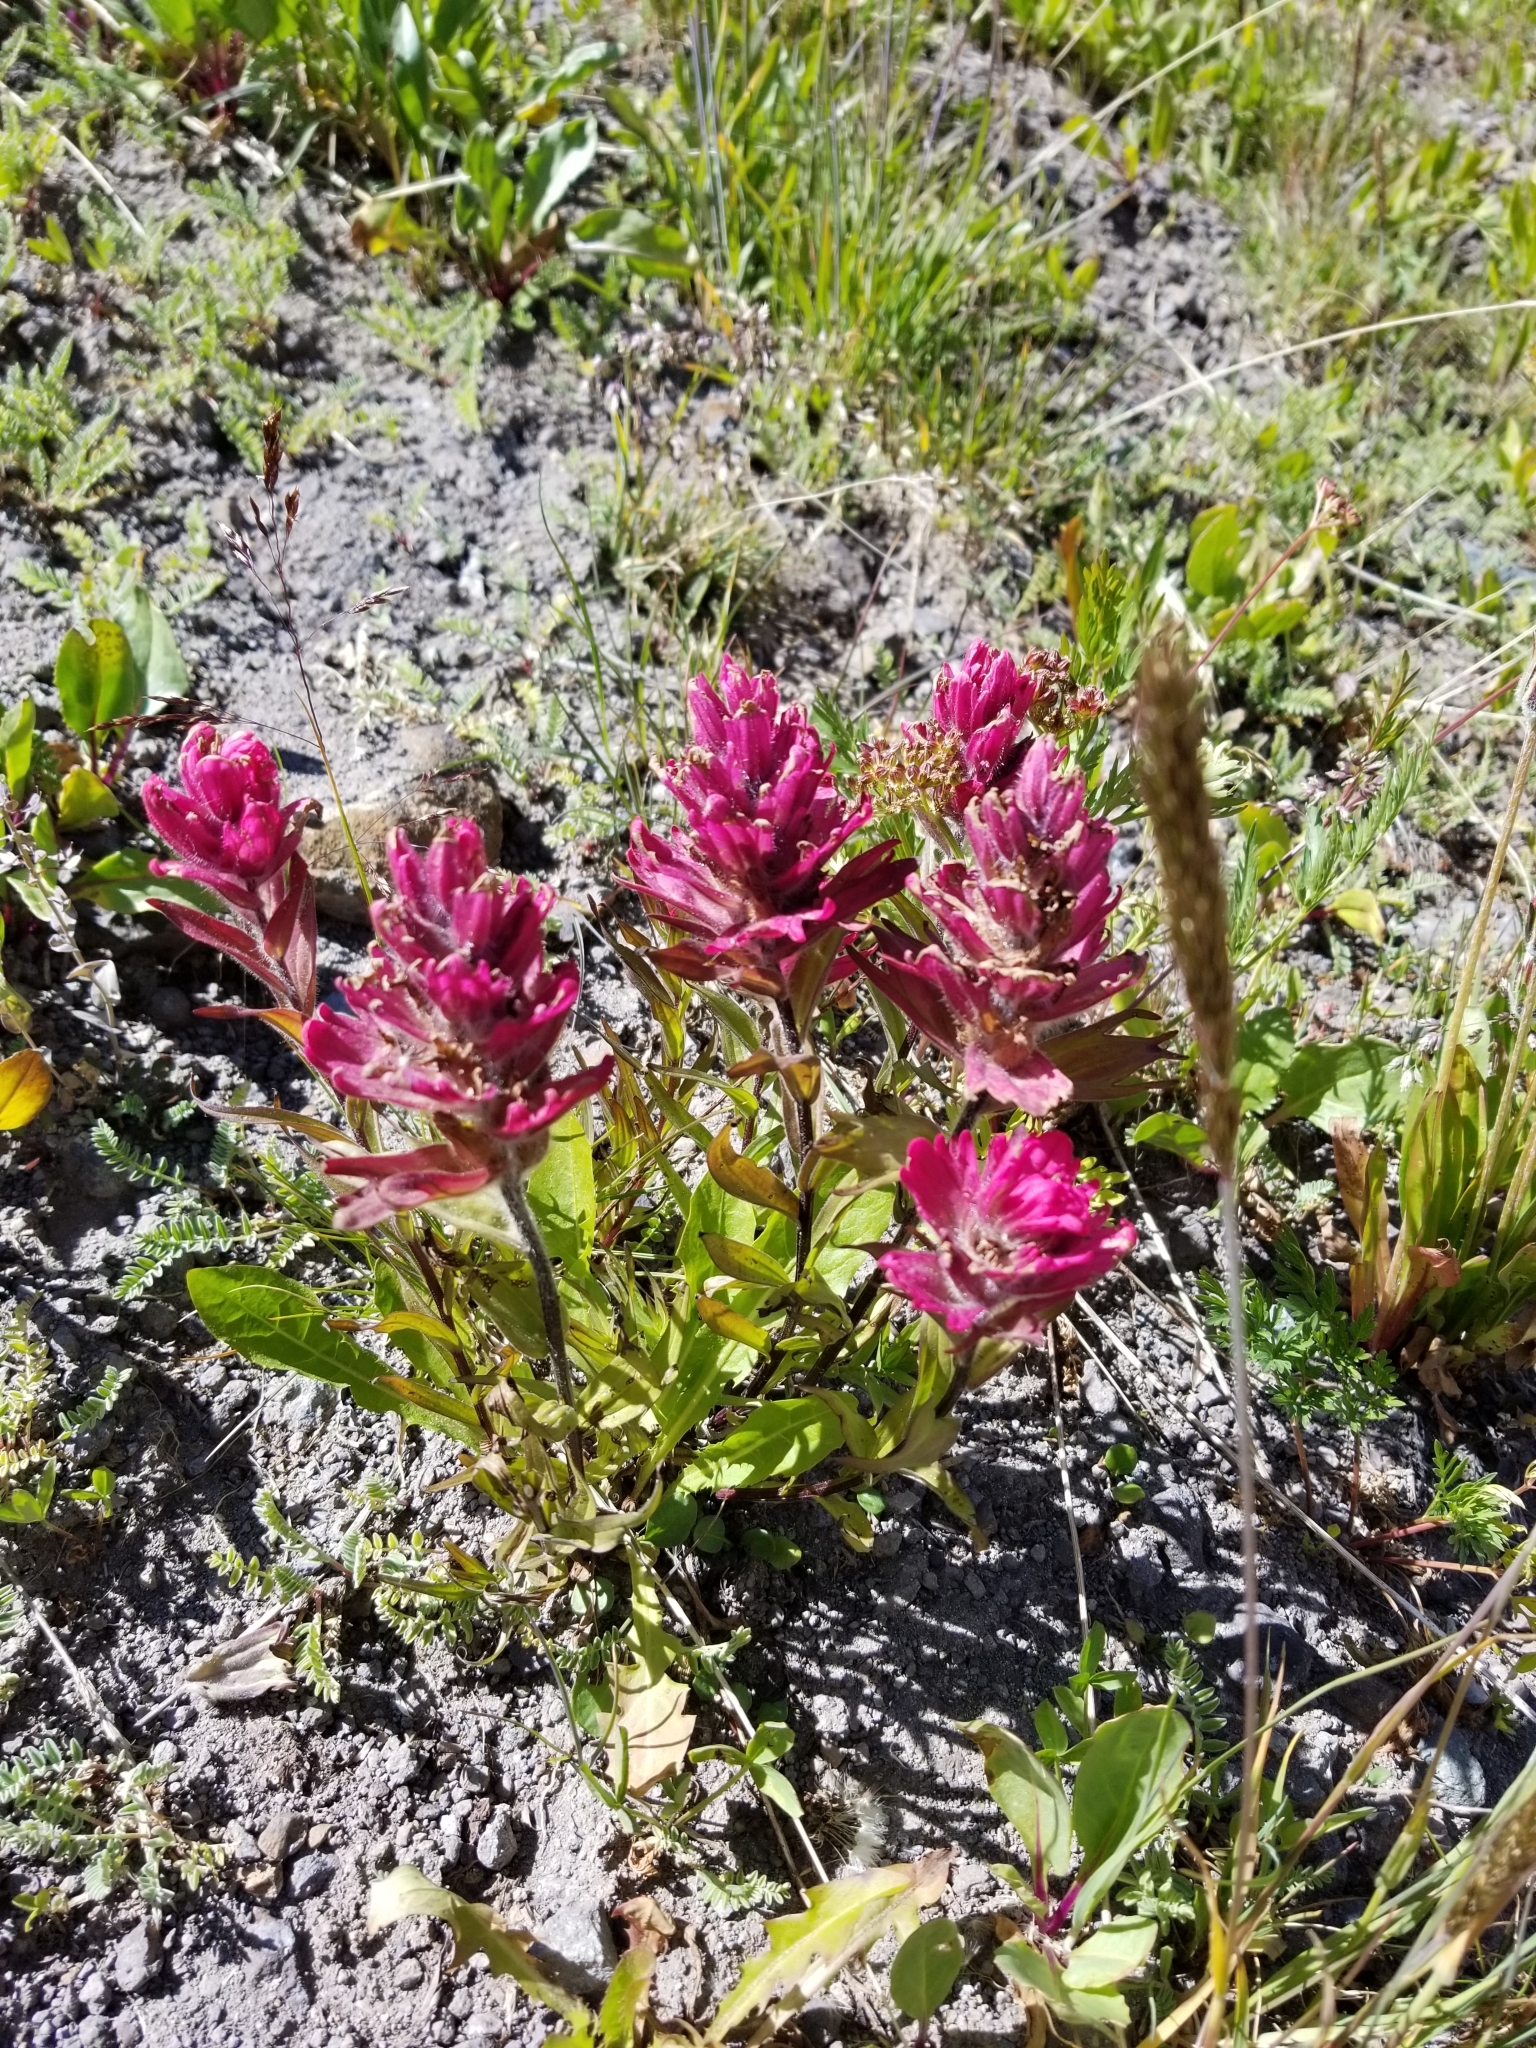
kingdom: Plantae
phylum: Tracheophyta
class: Magnoliopsida
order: Lamiales
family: Orobanchaceae
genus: Castilleja
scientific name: Castilleja rhexifolia
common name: Rocky mountain paintbrush
